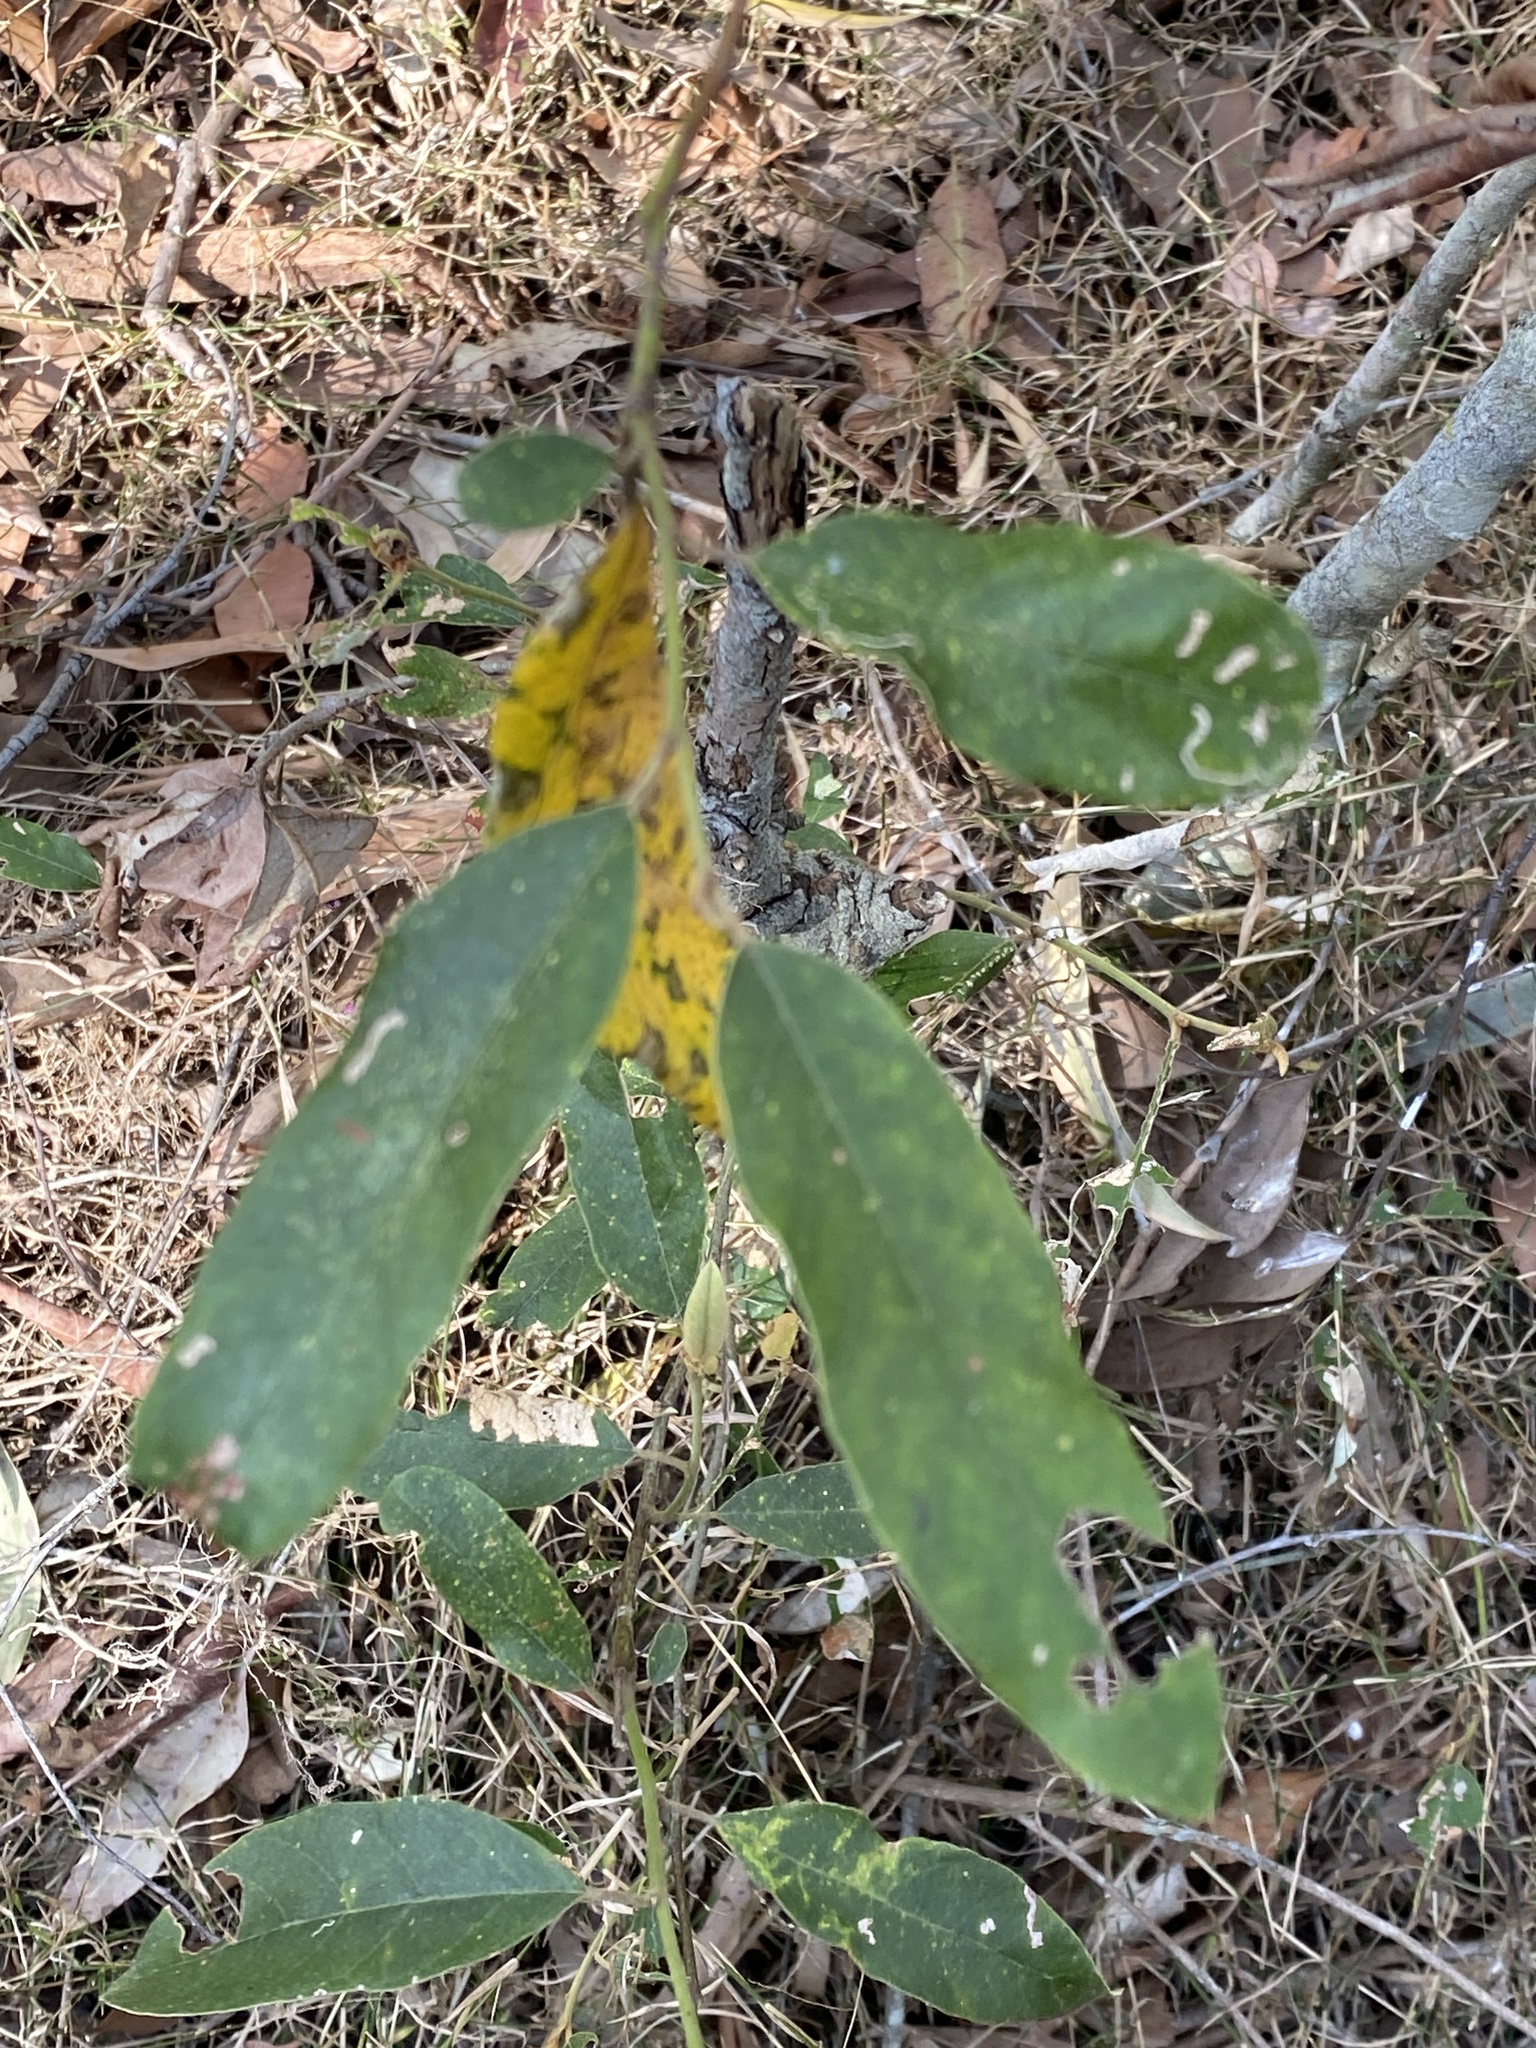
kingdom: Plantae
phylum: Tracheophyta
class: Magnoliopsida
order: Rosales
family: Rhamnaceae
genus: Alphitonia
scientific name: Alphitonia excelsa
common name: Red ash
